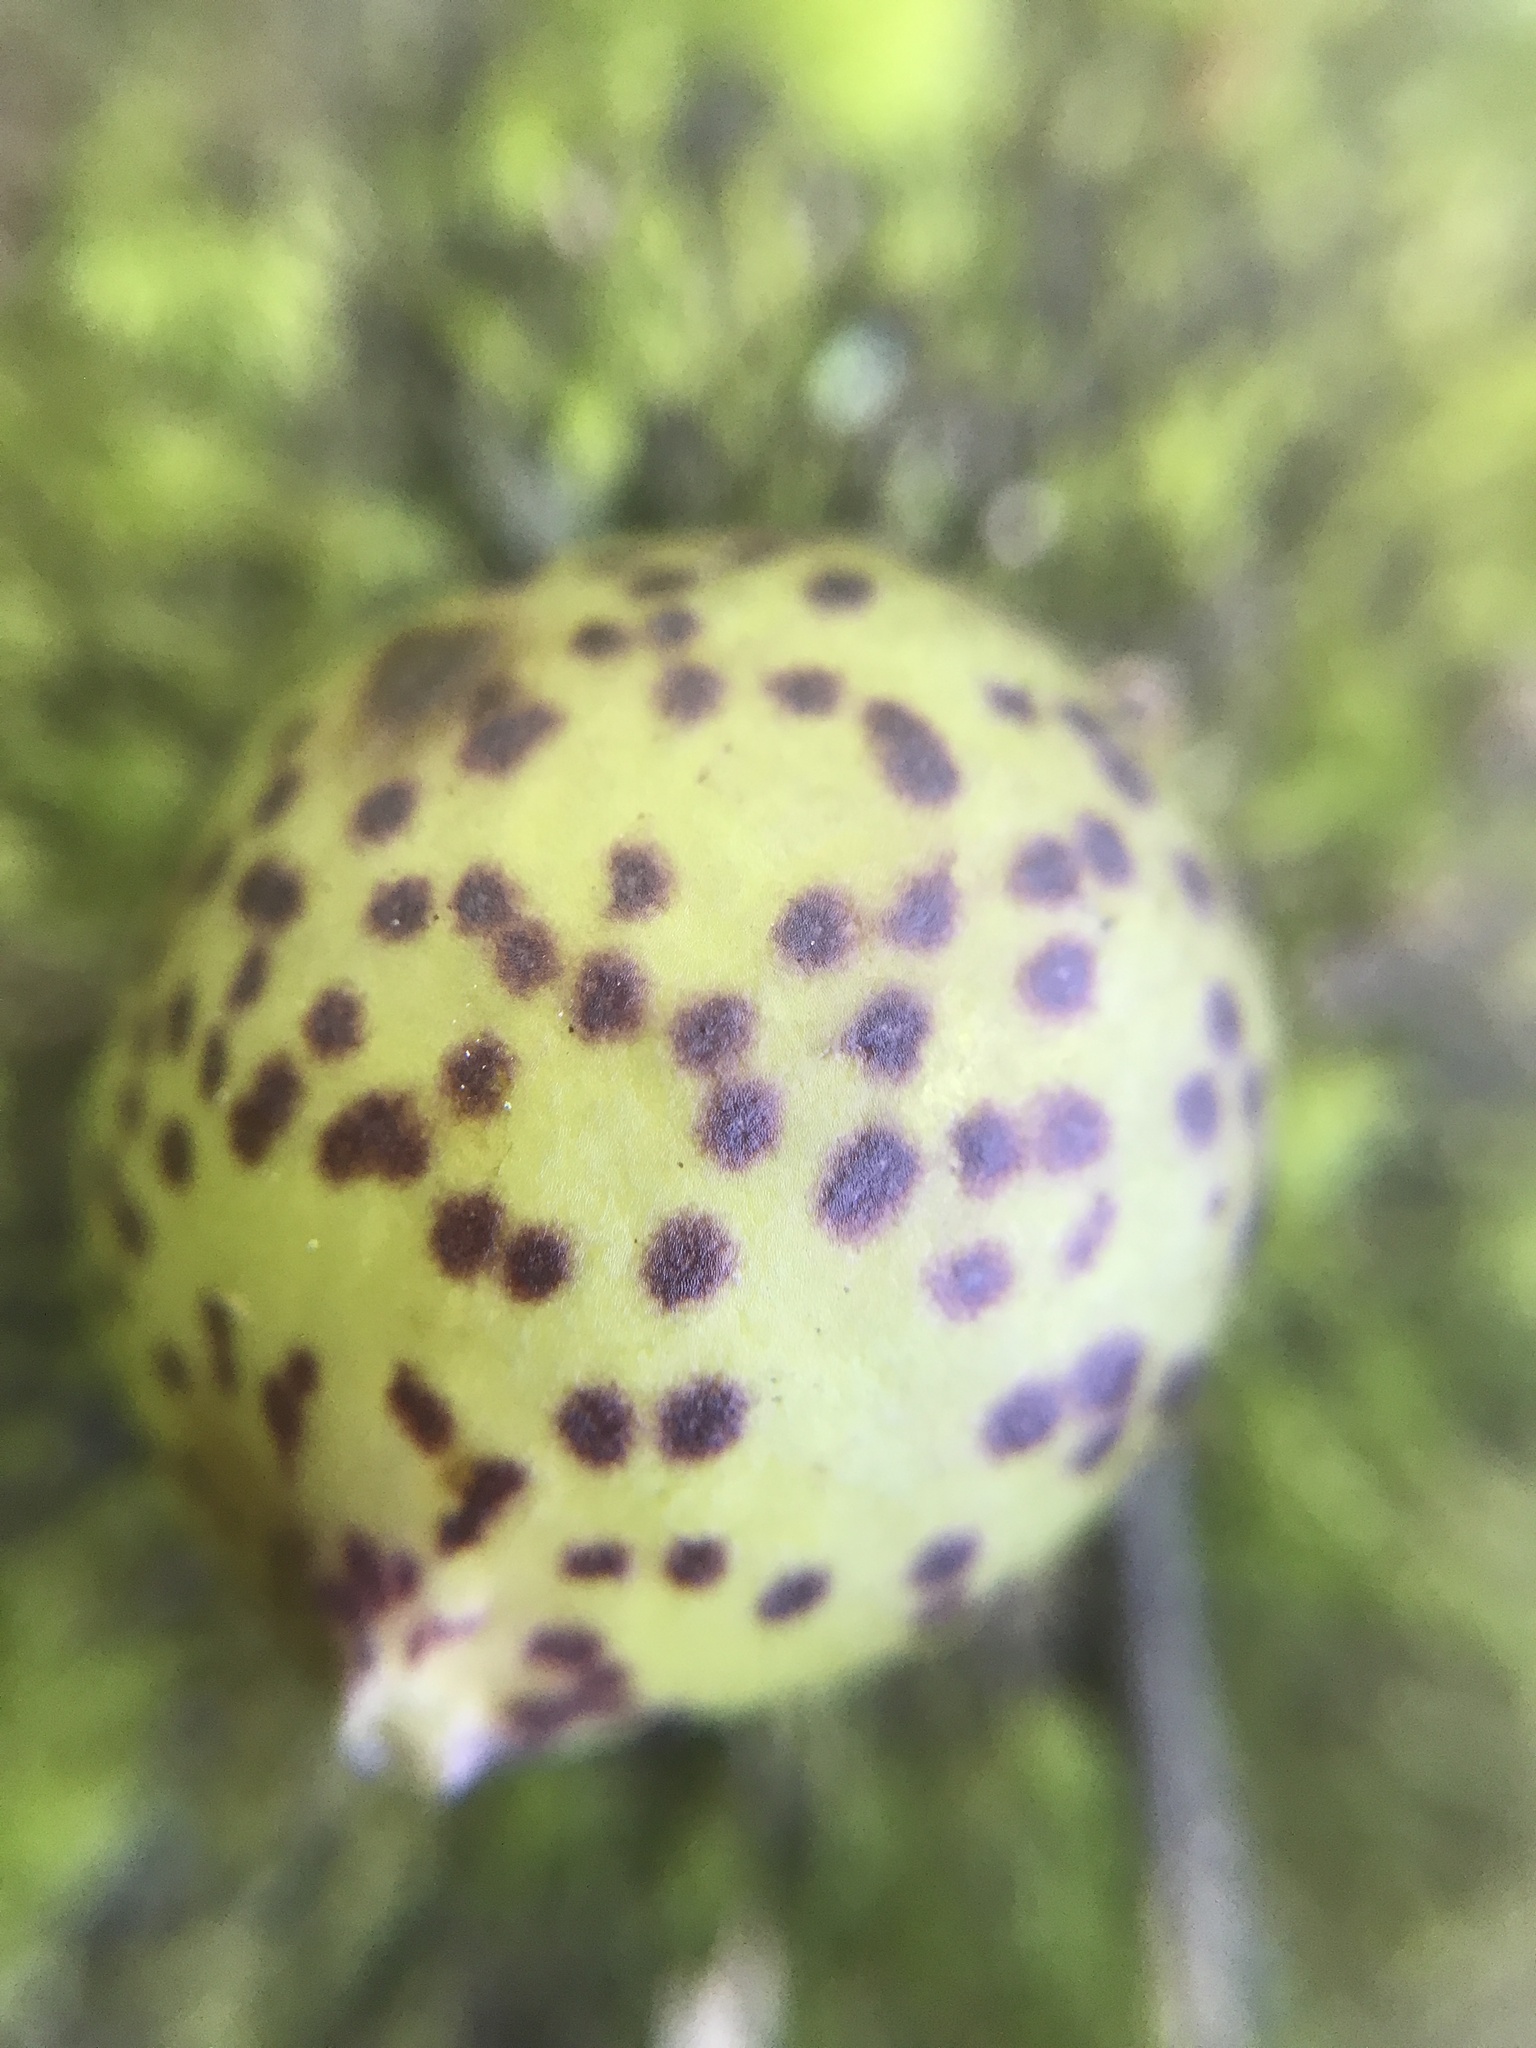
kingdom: Animalia
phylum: Arthropoda
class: Insecta
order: Hymenoptera
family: Cynipidae
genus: Amphibolips
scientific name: Amphibolips
